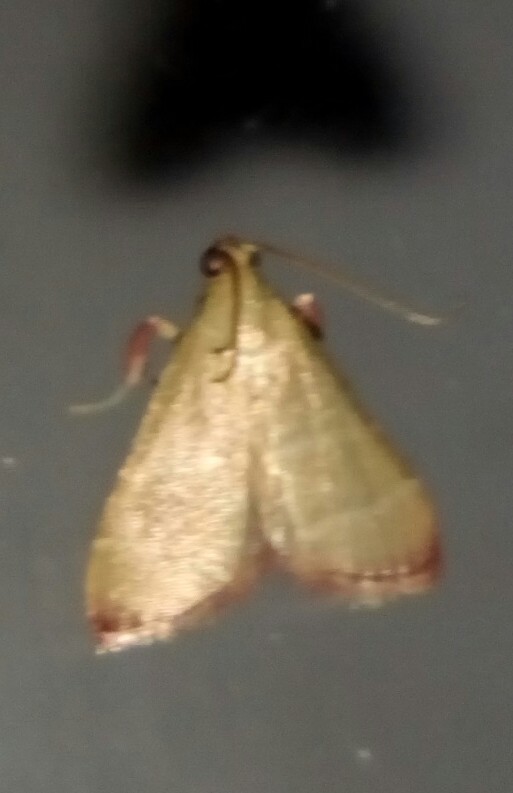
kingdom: Animalia
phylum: Arthropoda
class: Insecta
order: Lepidoptera
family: Pyralidae
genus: Arta
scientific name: Arta olivalis
